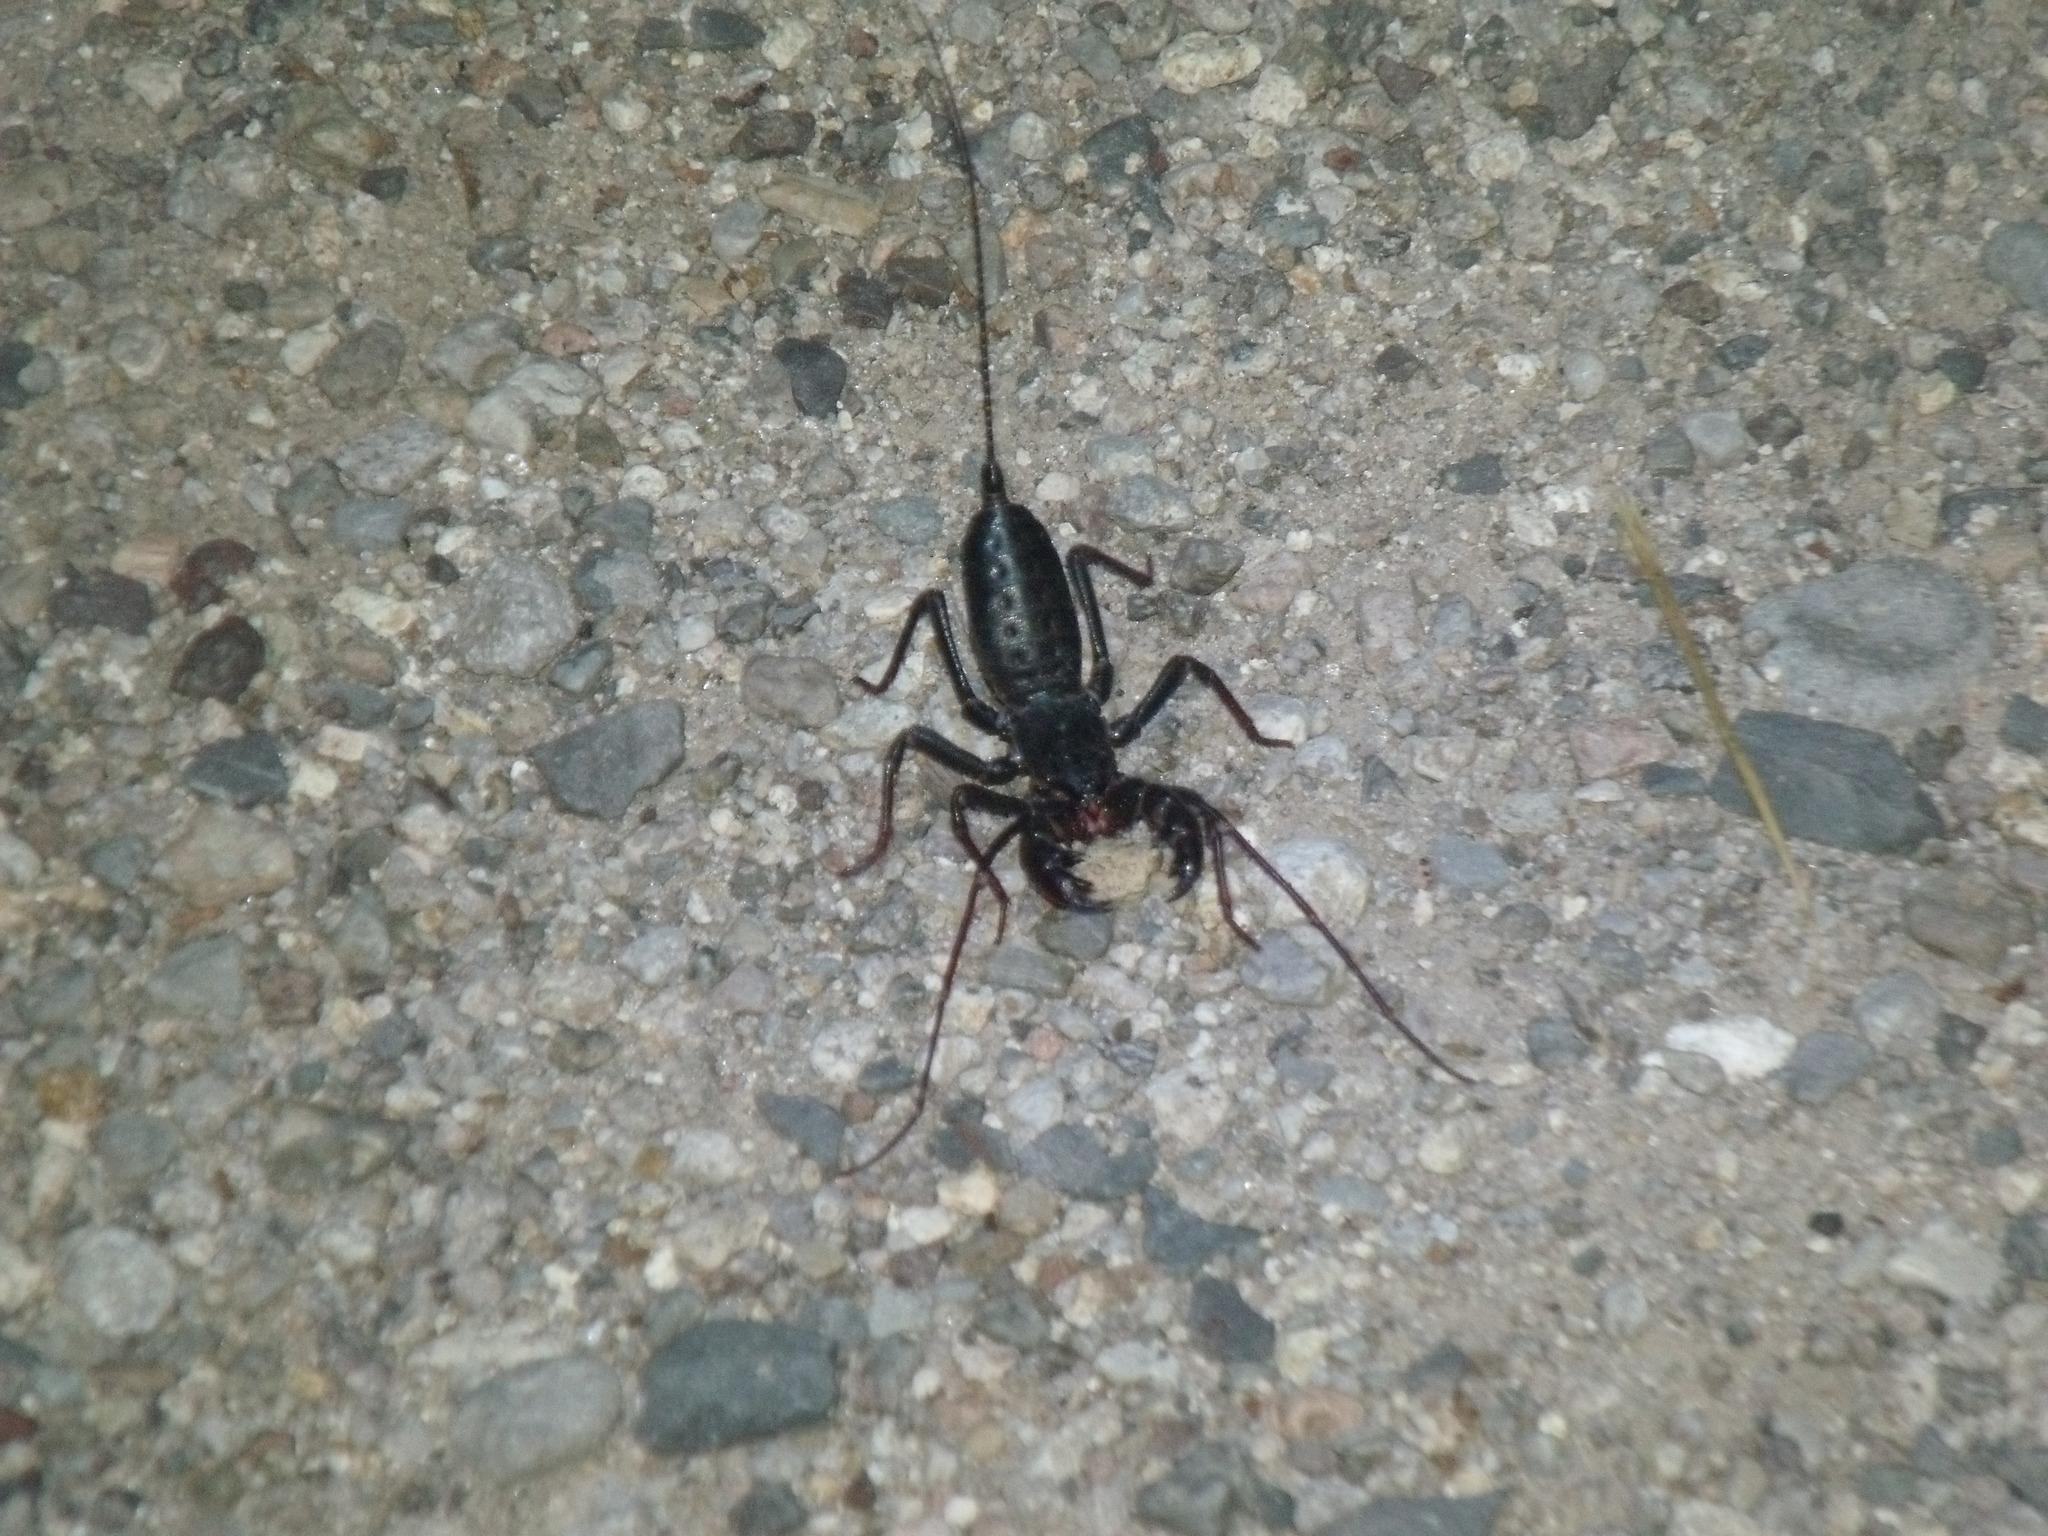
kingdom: Animalia
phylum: Arthropoda
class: Arachnida
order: Uropygi
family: Thelyphonidae
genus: Mastigoproctus
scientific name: Mastigoproctus tohono
